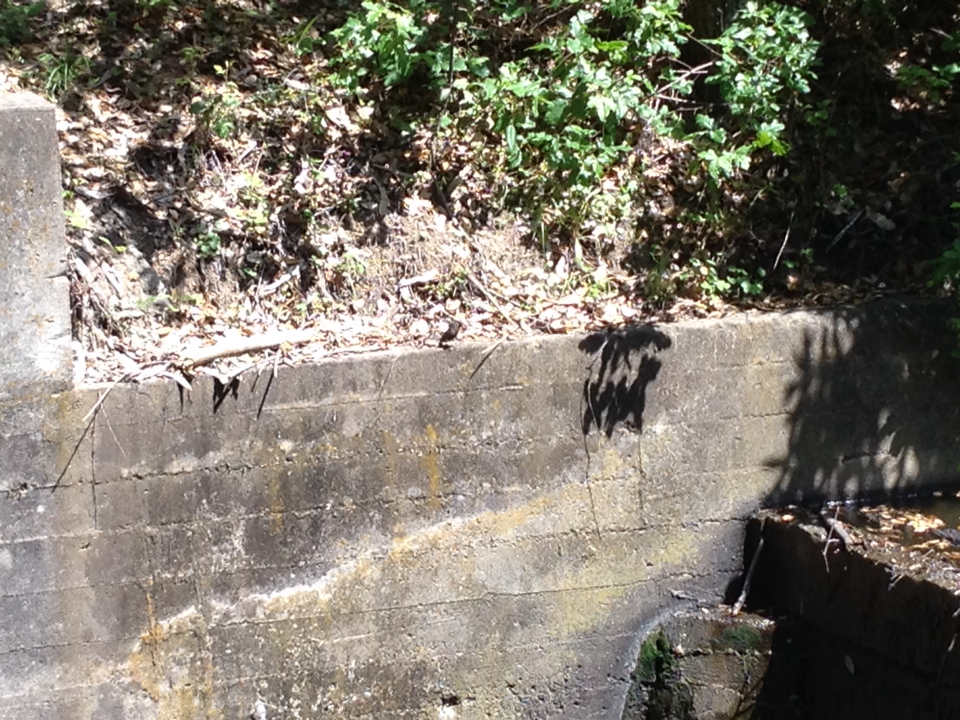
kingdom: Animalia
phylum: Chordata
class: Aves
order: Passeriformes
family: Tyrannidae
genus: Sayornis
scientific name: Sayornis nigricans
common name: Black phoebe
